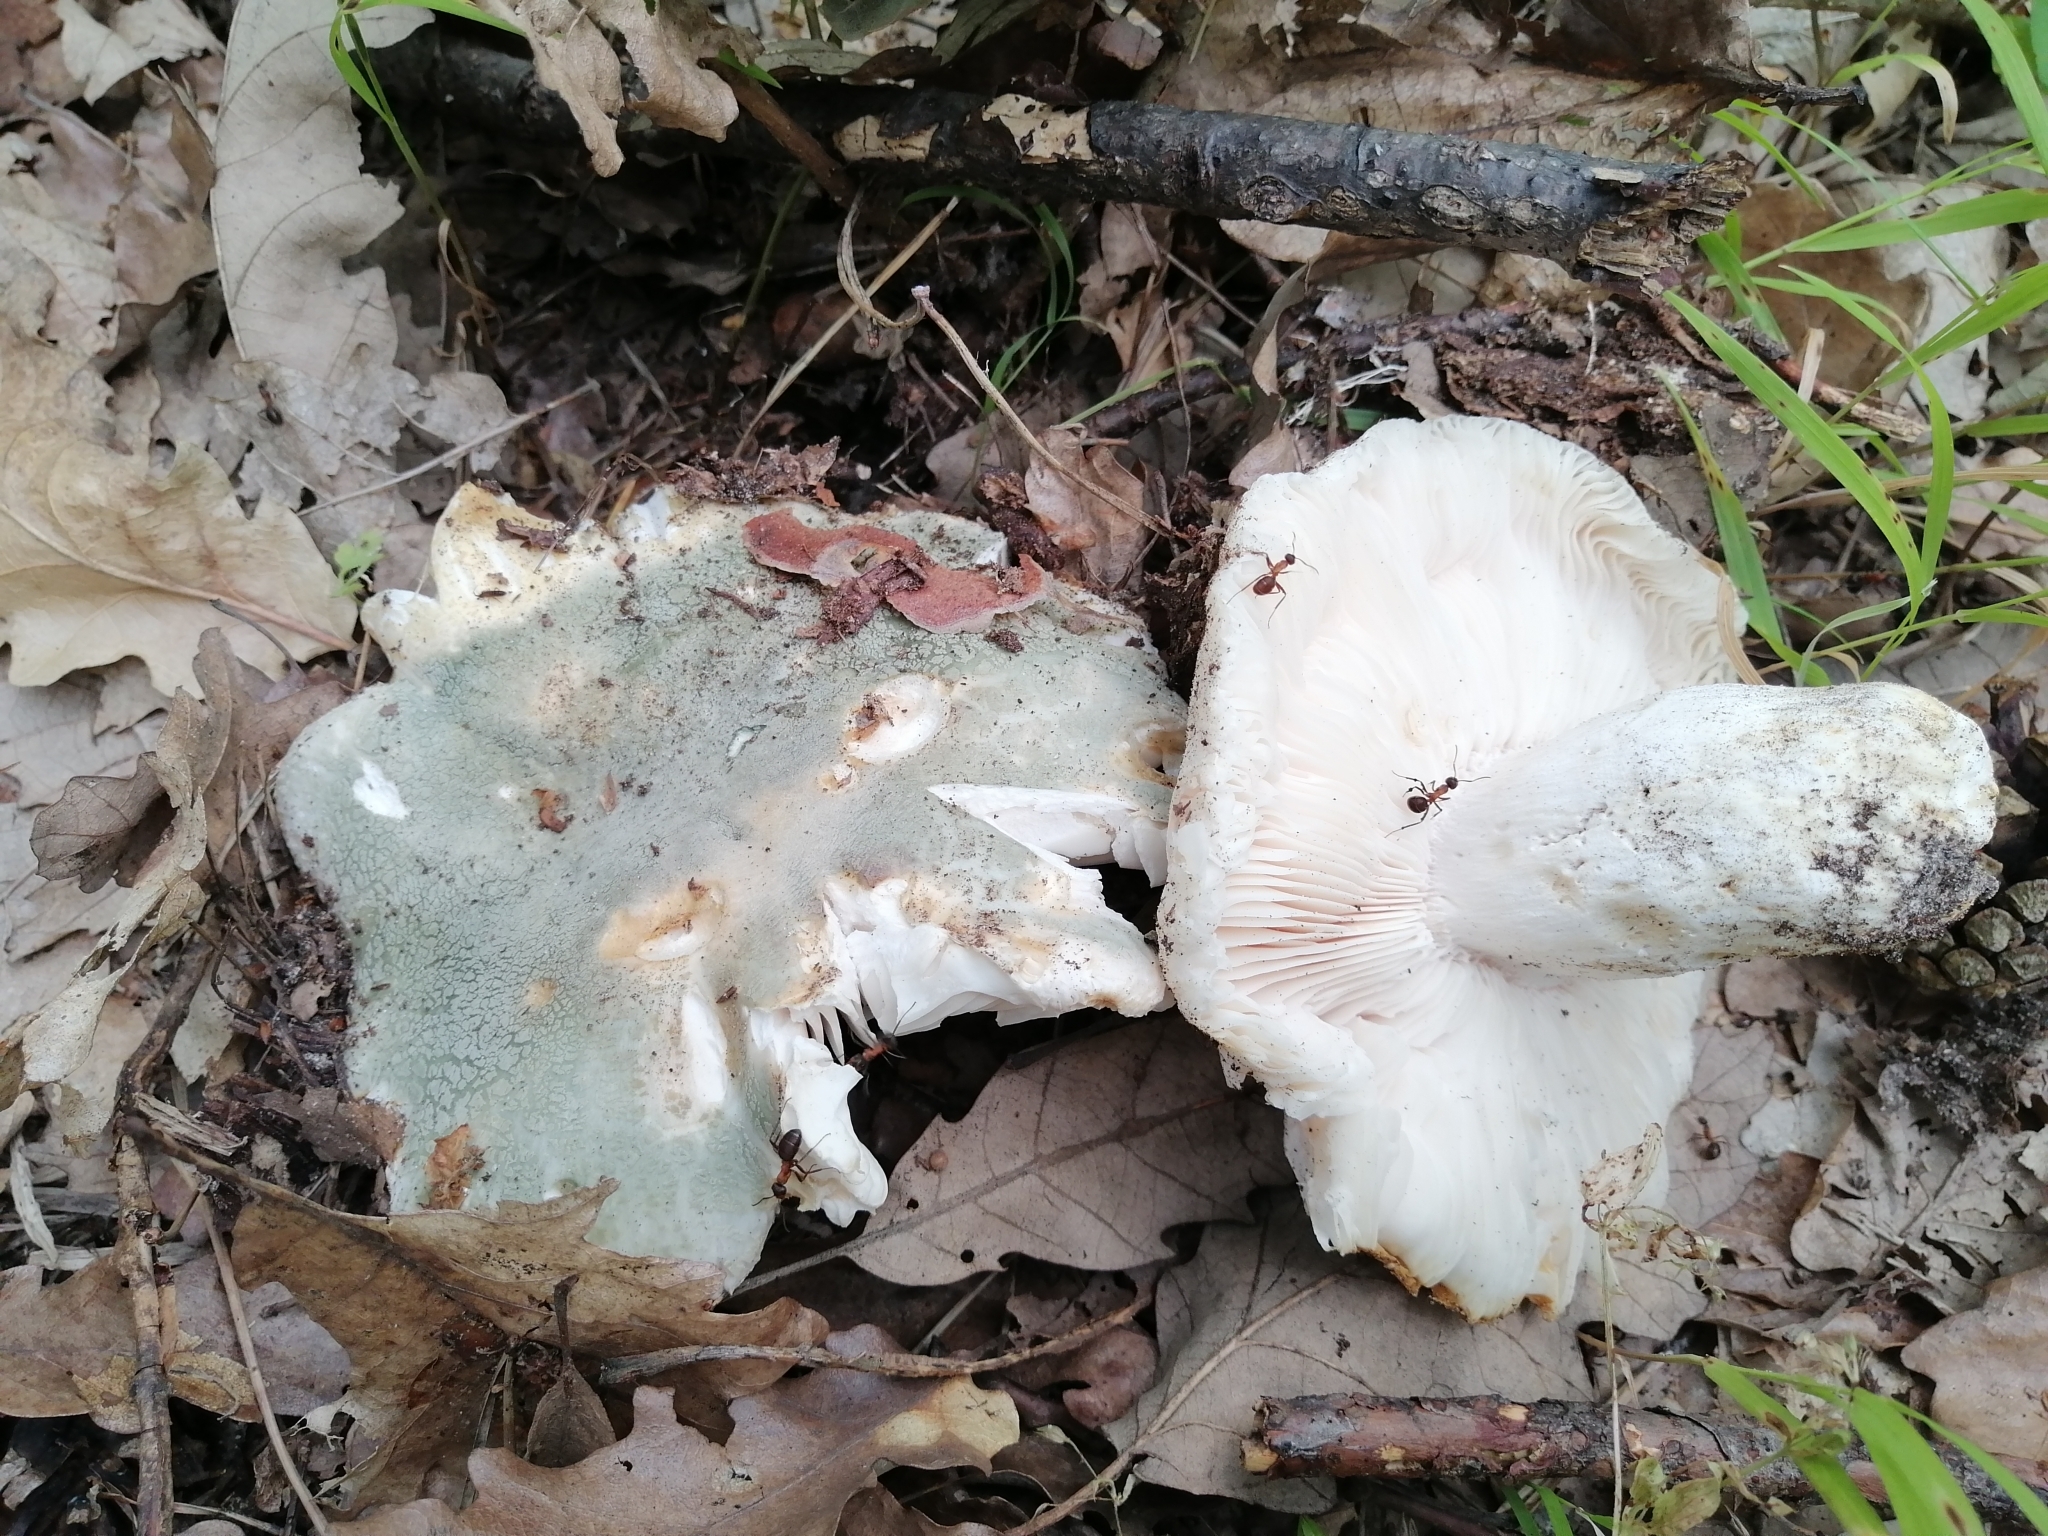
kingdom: Fungi
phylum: Basidiomycota
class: Agaricomycetes
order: Russulales
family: Russulaceae
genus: Russula
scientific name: Russula virescens
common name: Greencracked brittlegill
